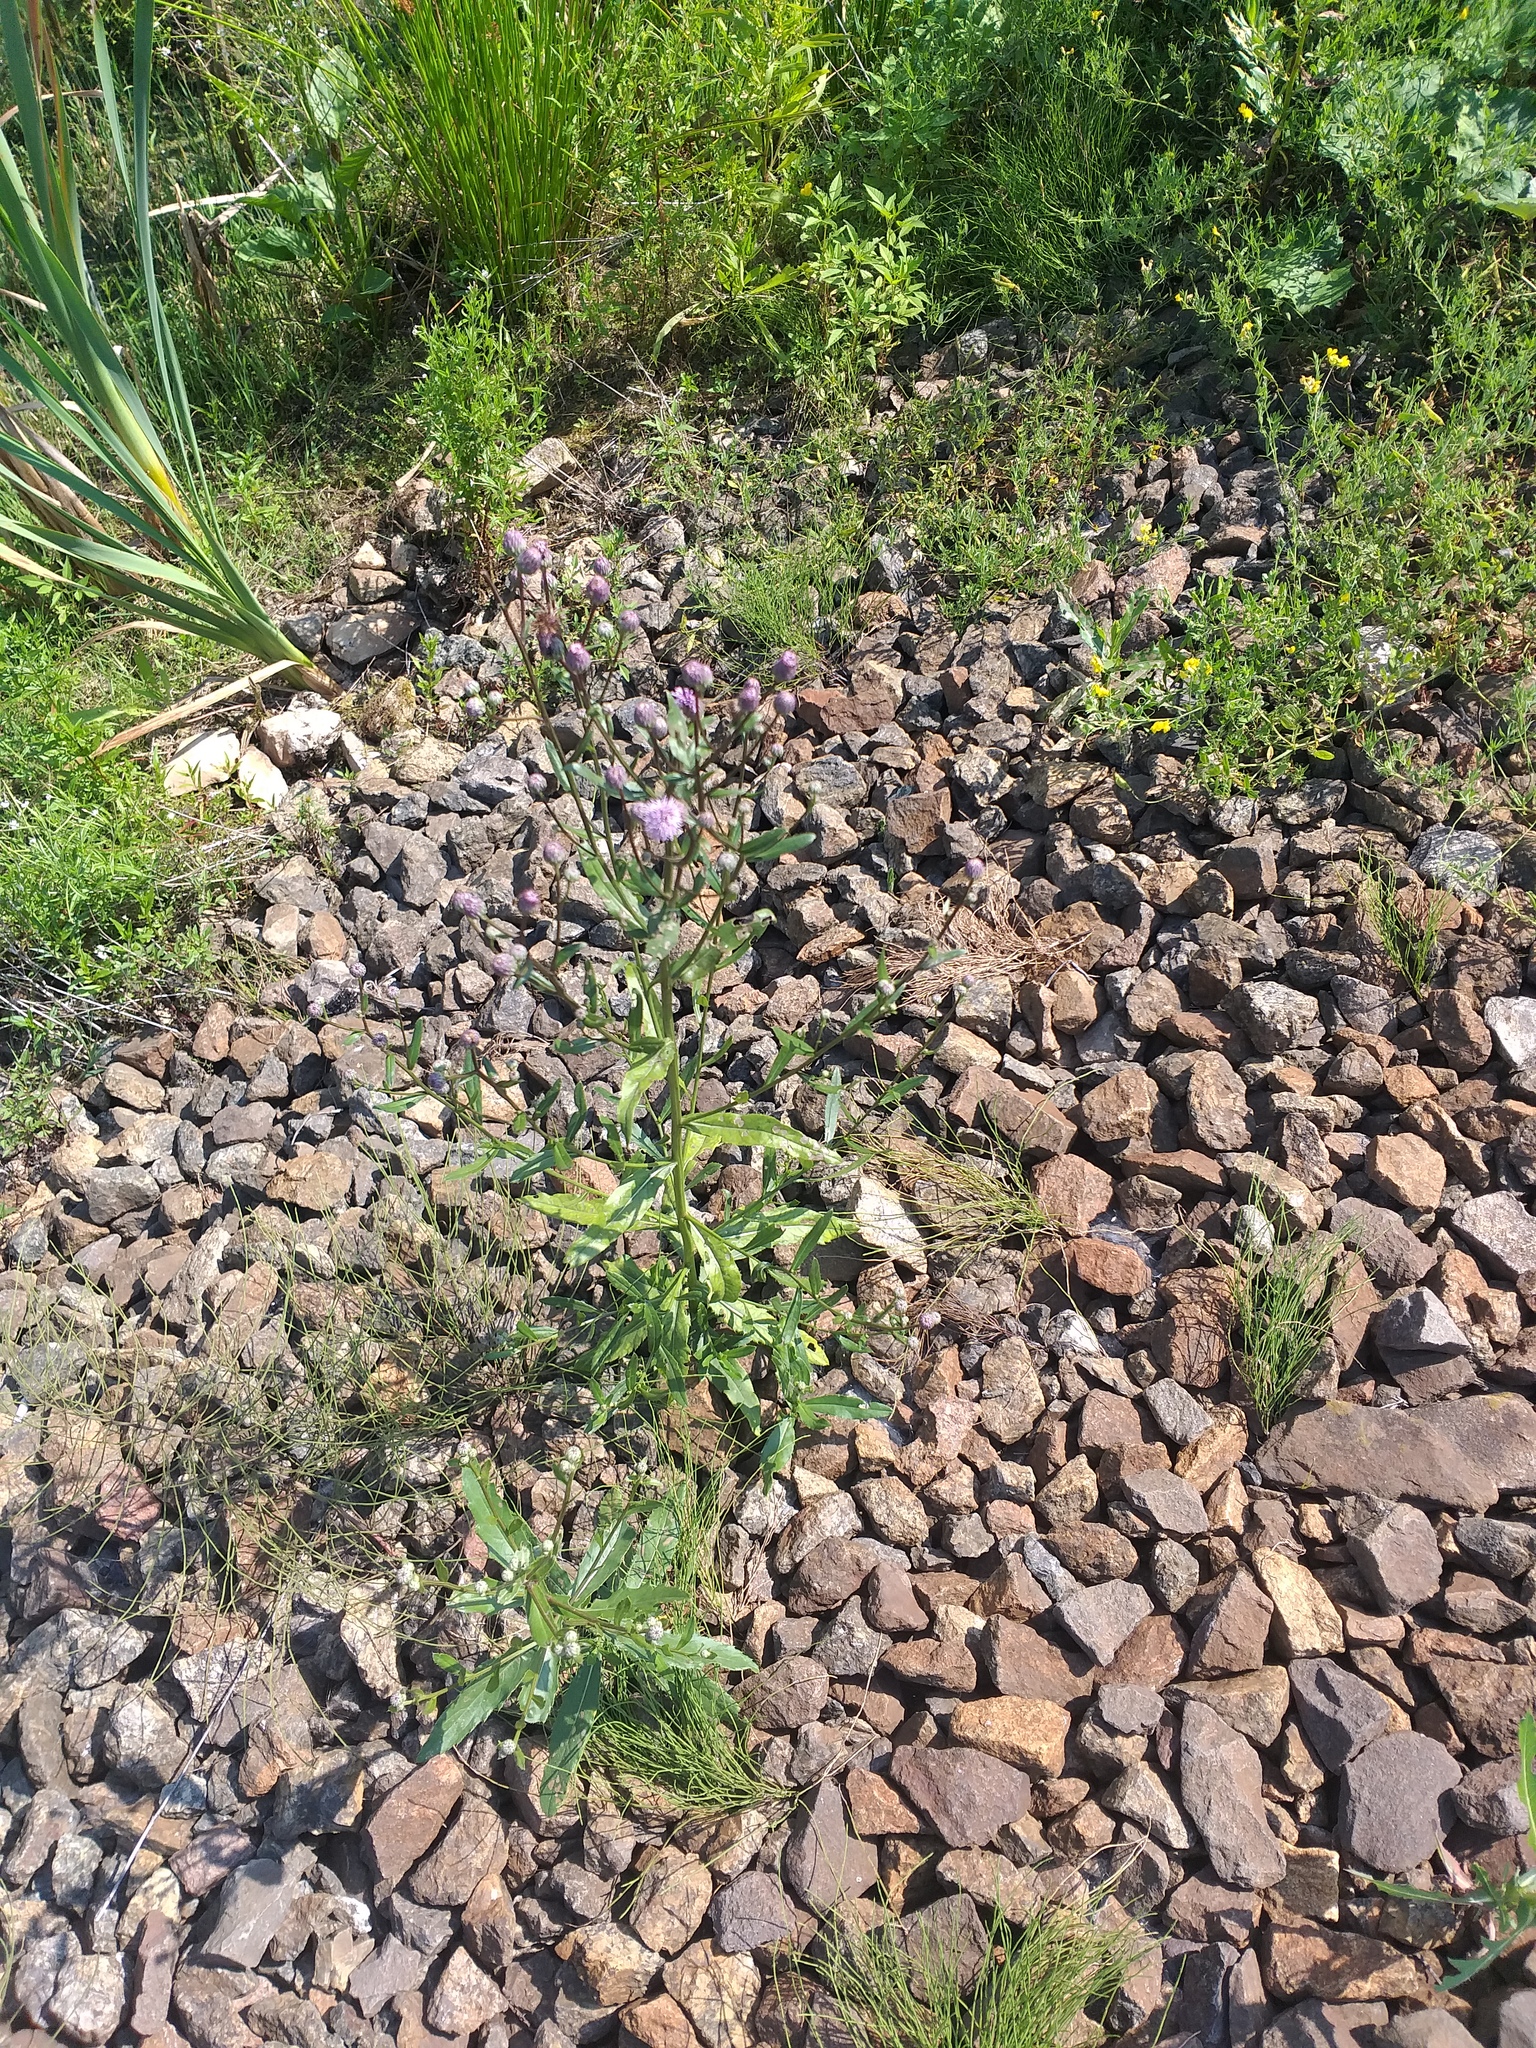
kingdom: Plantae
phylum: Tracheophyta
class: Magnoliopsida
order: Asterales
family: Asteraceae
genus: Cirsium
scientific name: Cirsium arvense
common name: Creeping thistle
